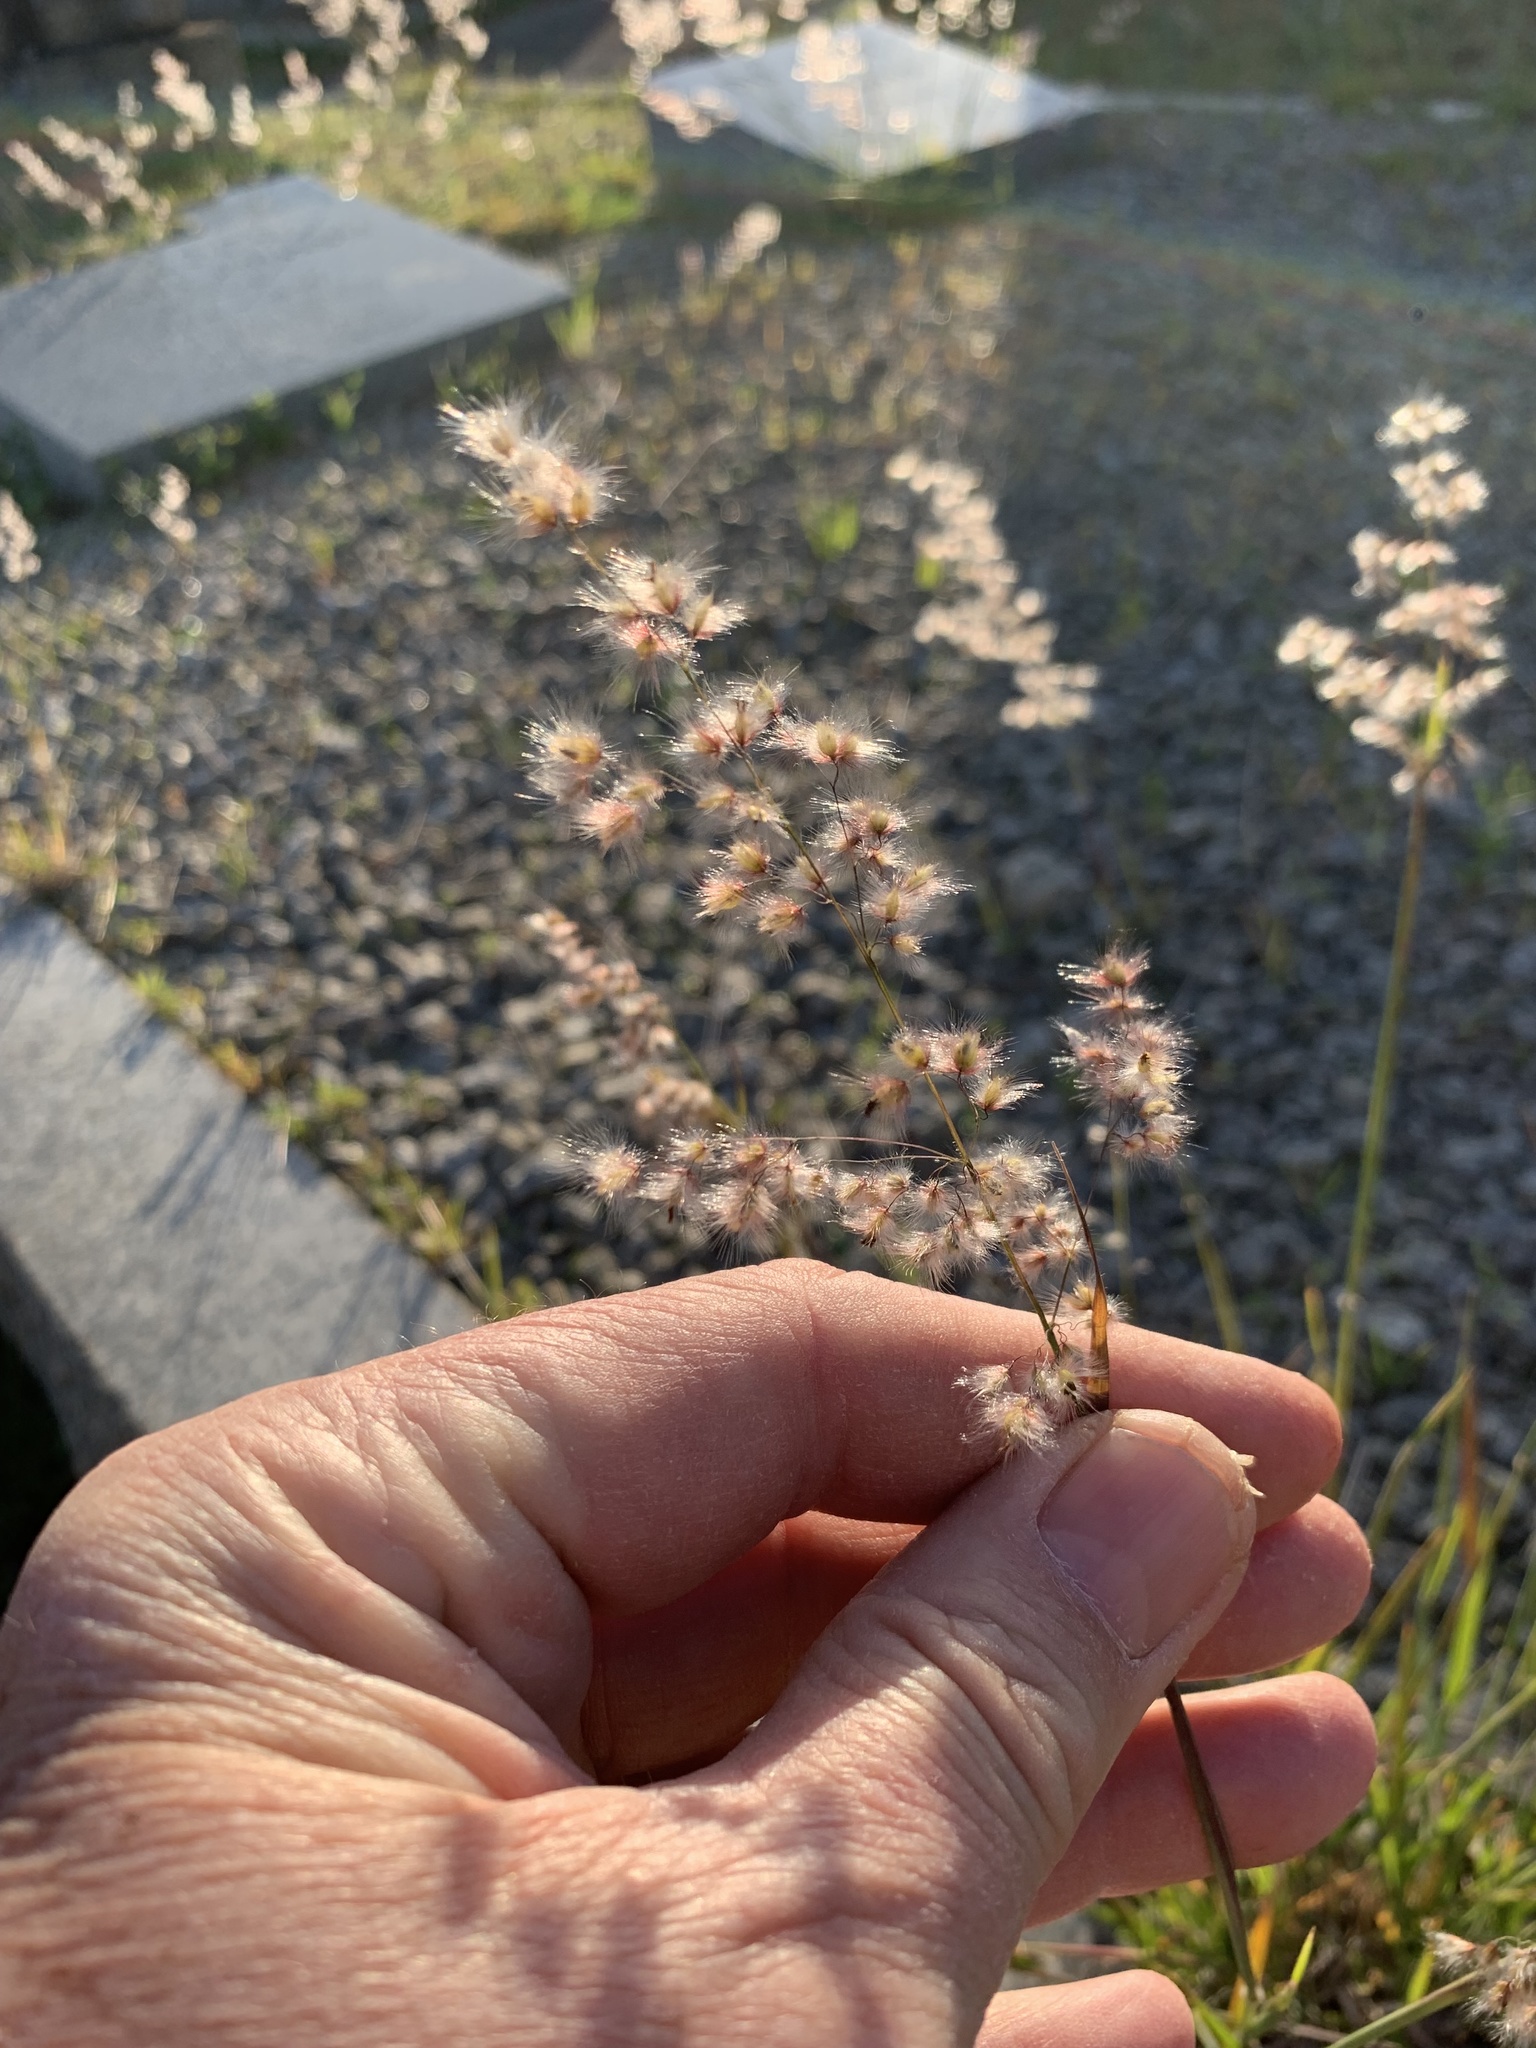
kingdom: Plantae
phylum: Tracheophyta
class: Liliopsida
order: Poales
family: Poaceae
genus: Melinis
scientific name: Melinis repens
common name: Rose natal grass
